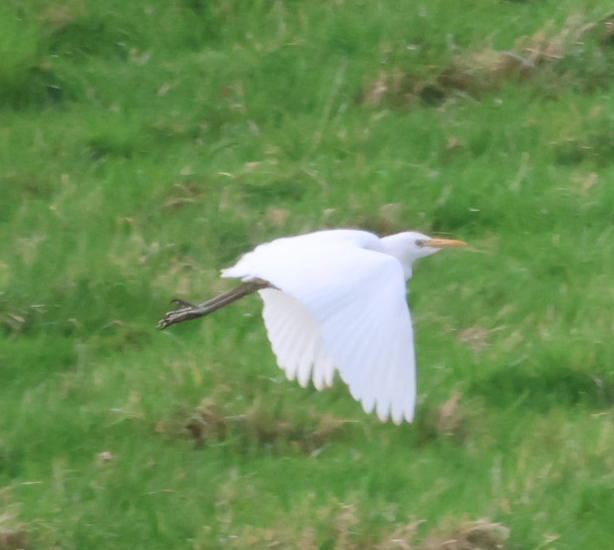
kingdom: Animalia
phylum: Chordata
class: Aves
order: Pelecaniformes
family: Ardeidae
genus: Bubulcus
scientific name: Bubulcus ibis
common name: Cattle egret
